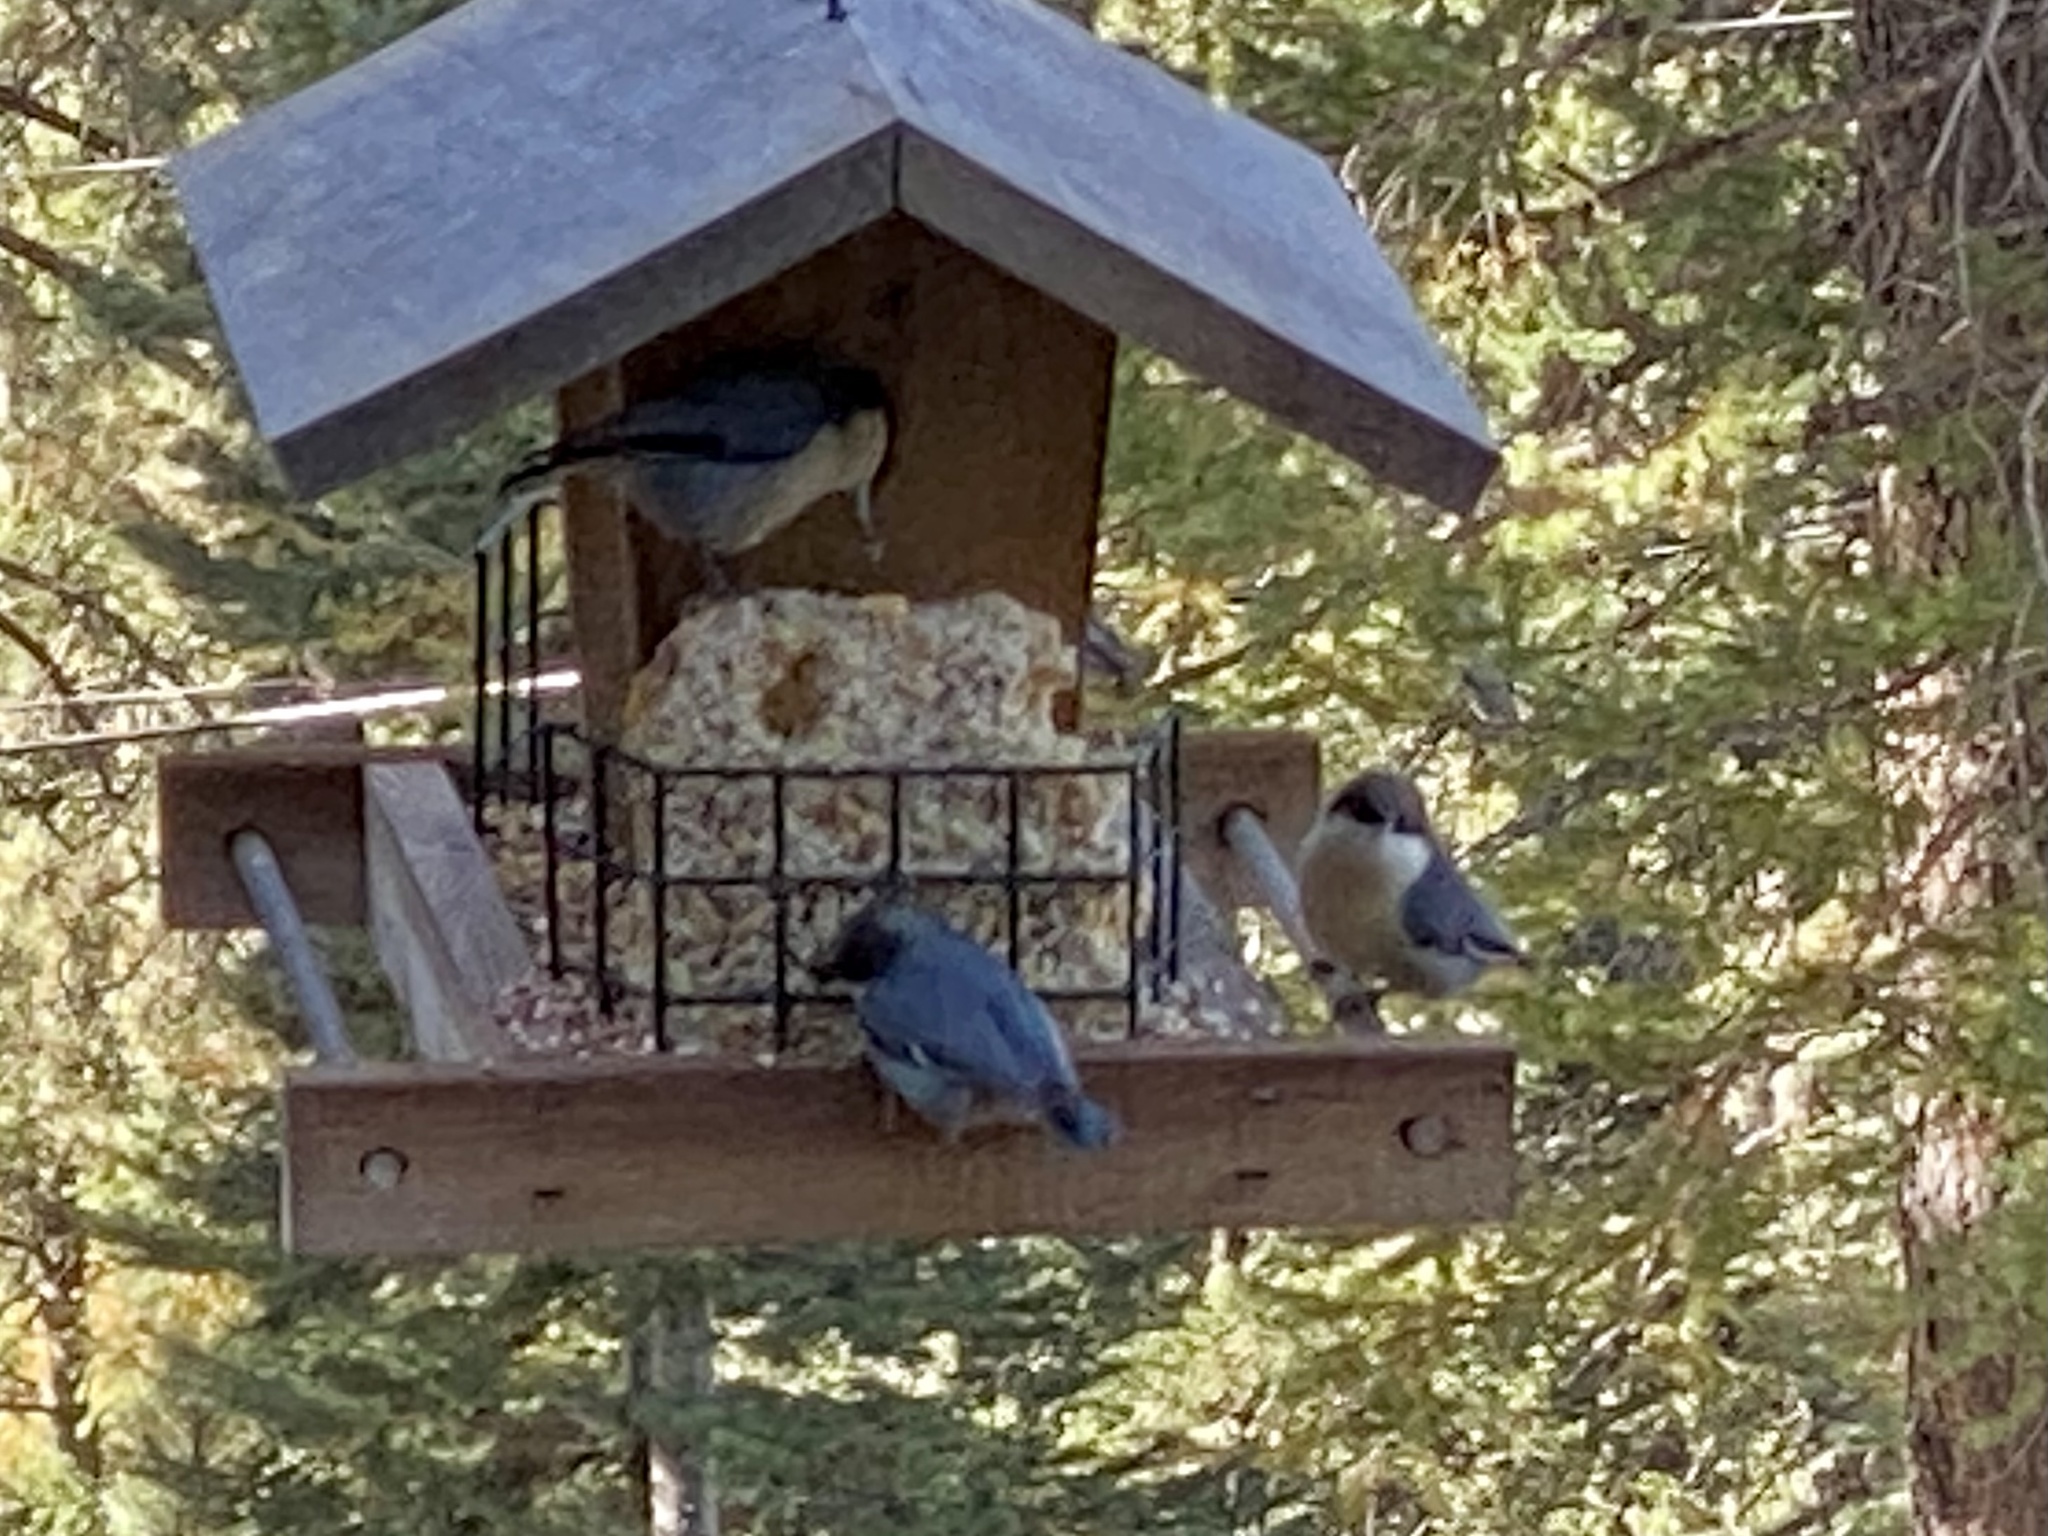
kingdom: Animalia
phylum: Chordata
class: Aves
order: Passeriformes
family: Sittidae
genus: Sitta
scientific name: Sitta pygmaea
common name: Pygmy nuthatch
